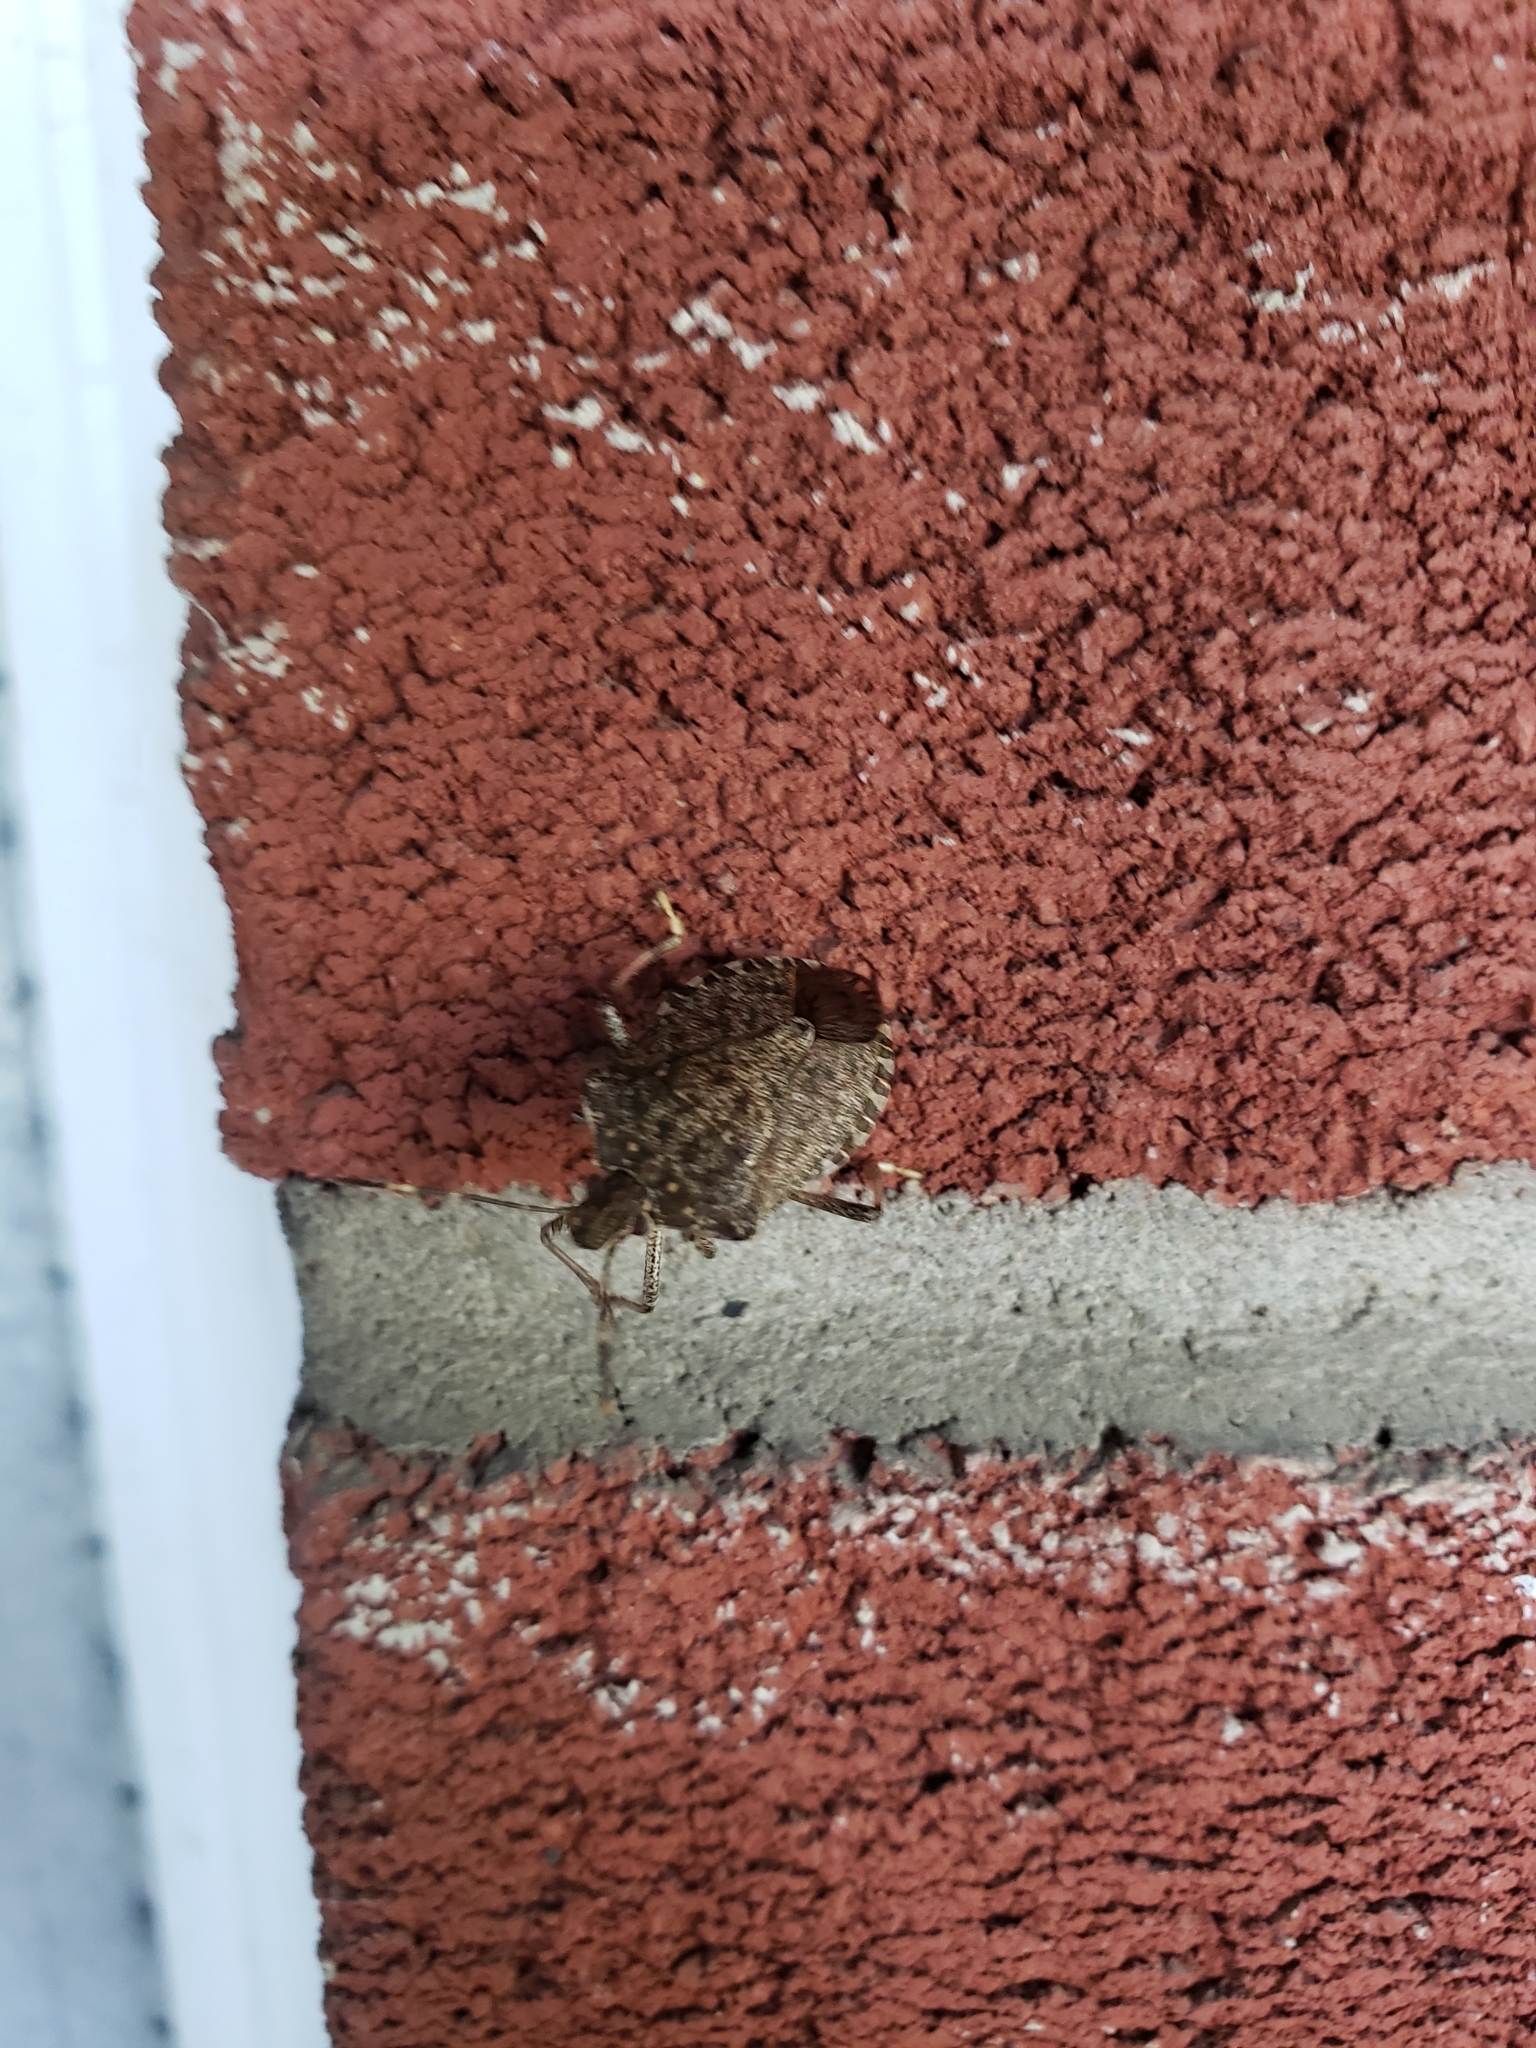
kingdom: Animalia
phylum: Arthropoda
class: Insecta
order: Hemiptera
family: Pentatomidae
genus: Halyomorpha
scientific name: Halyomorpha halys
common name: Brown marmorated stink bug
